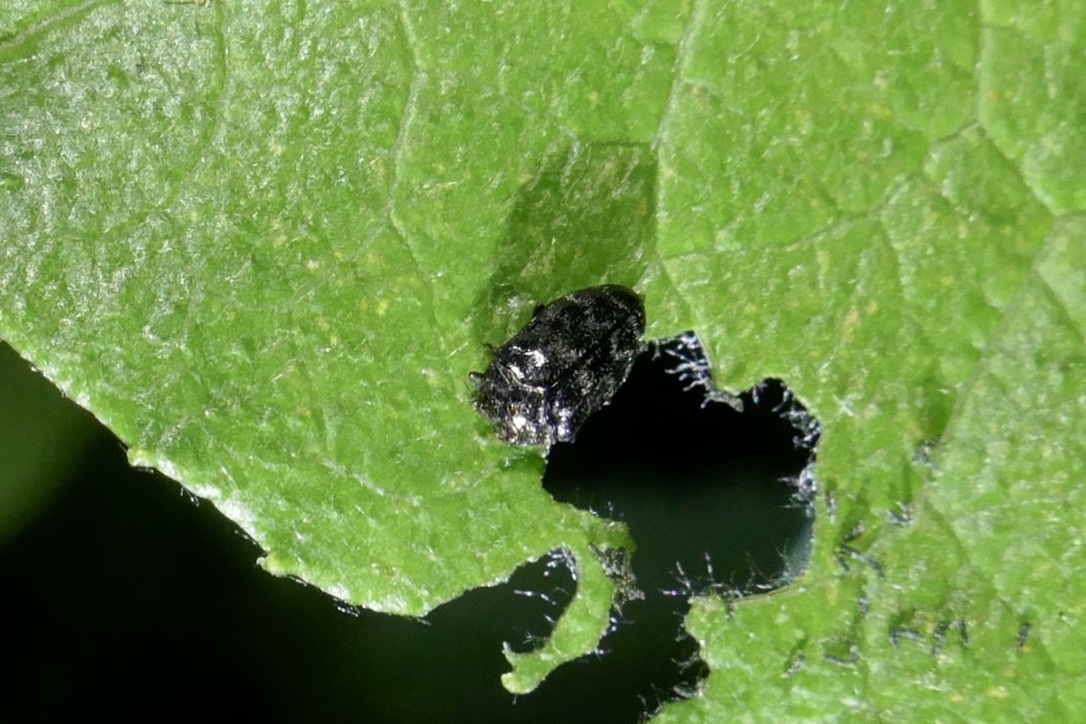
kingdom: Animalia
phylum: Arthropoda
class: Insecta
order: Coleoptera
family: Buprestidae
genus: Trachys
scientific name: Trachys minutus
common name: Metallic wood-boring beetle
